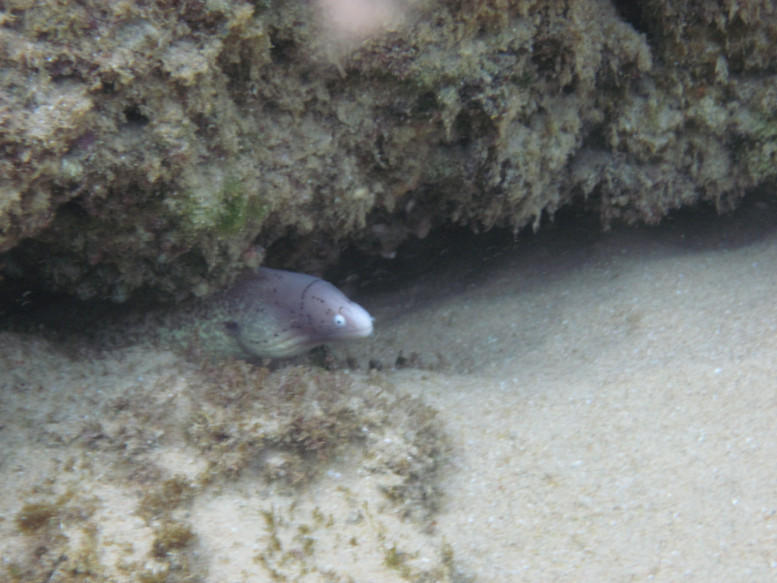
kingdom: Animalia
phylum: Chordata
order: Anguilliformes
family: Muraenidae
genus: Gymnothorax
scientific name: Gymnothorax griseus
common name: Geometric moray
